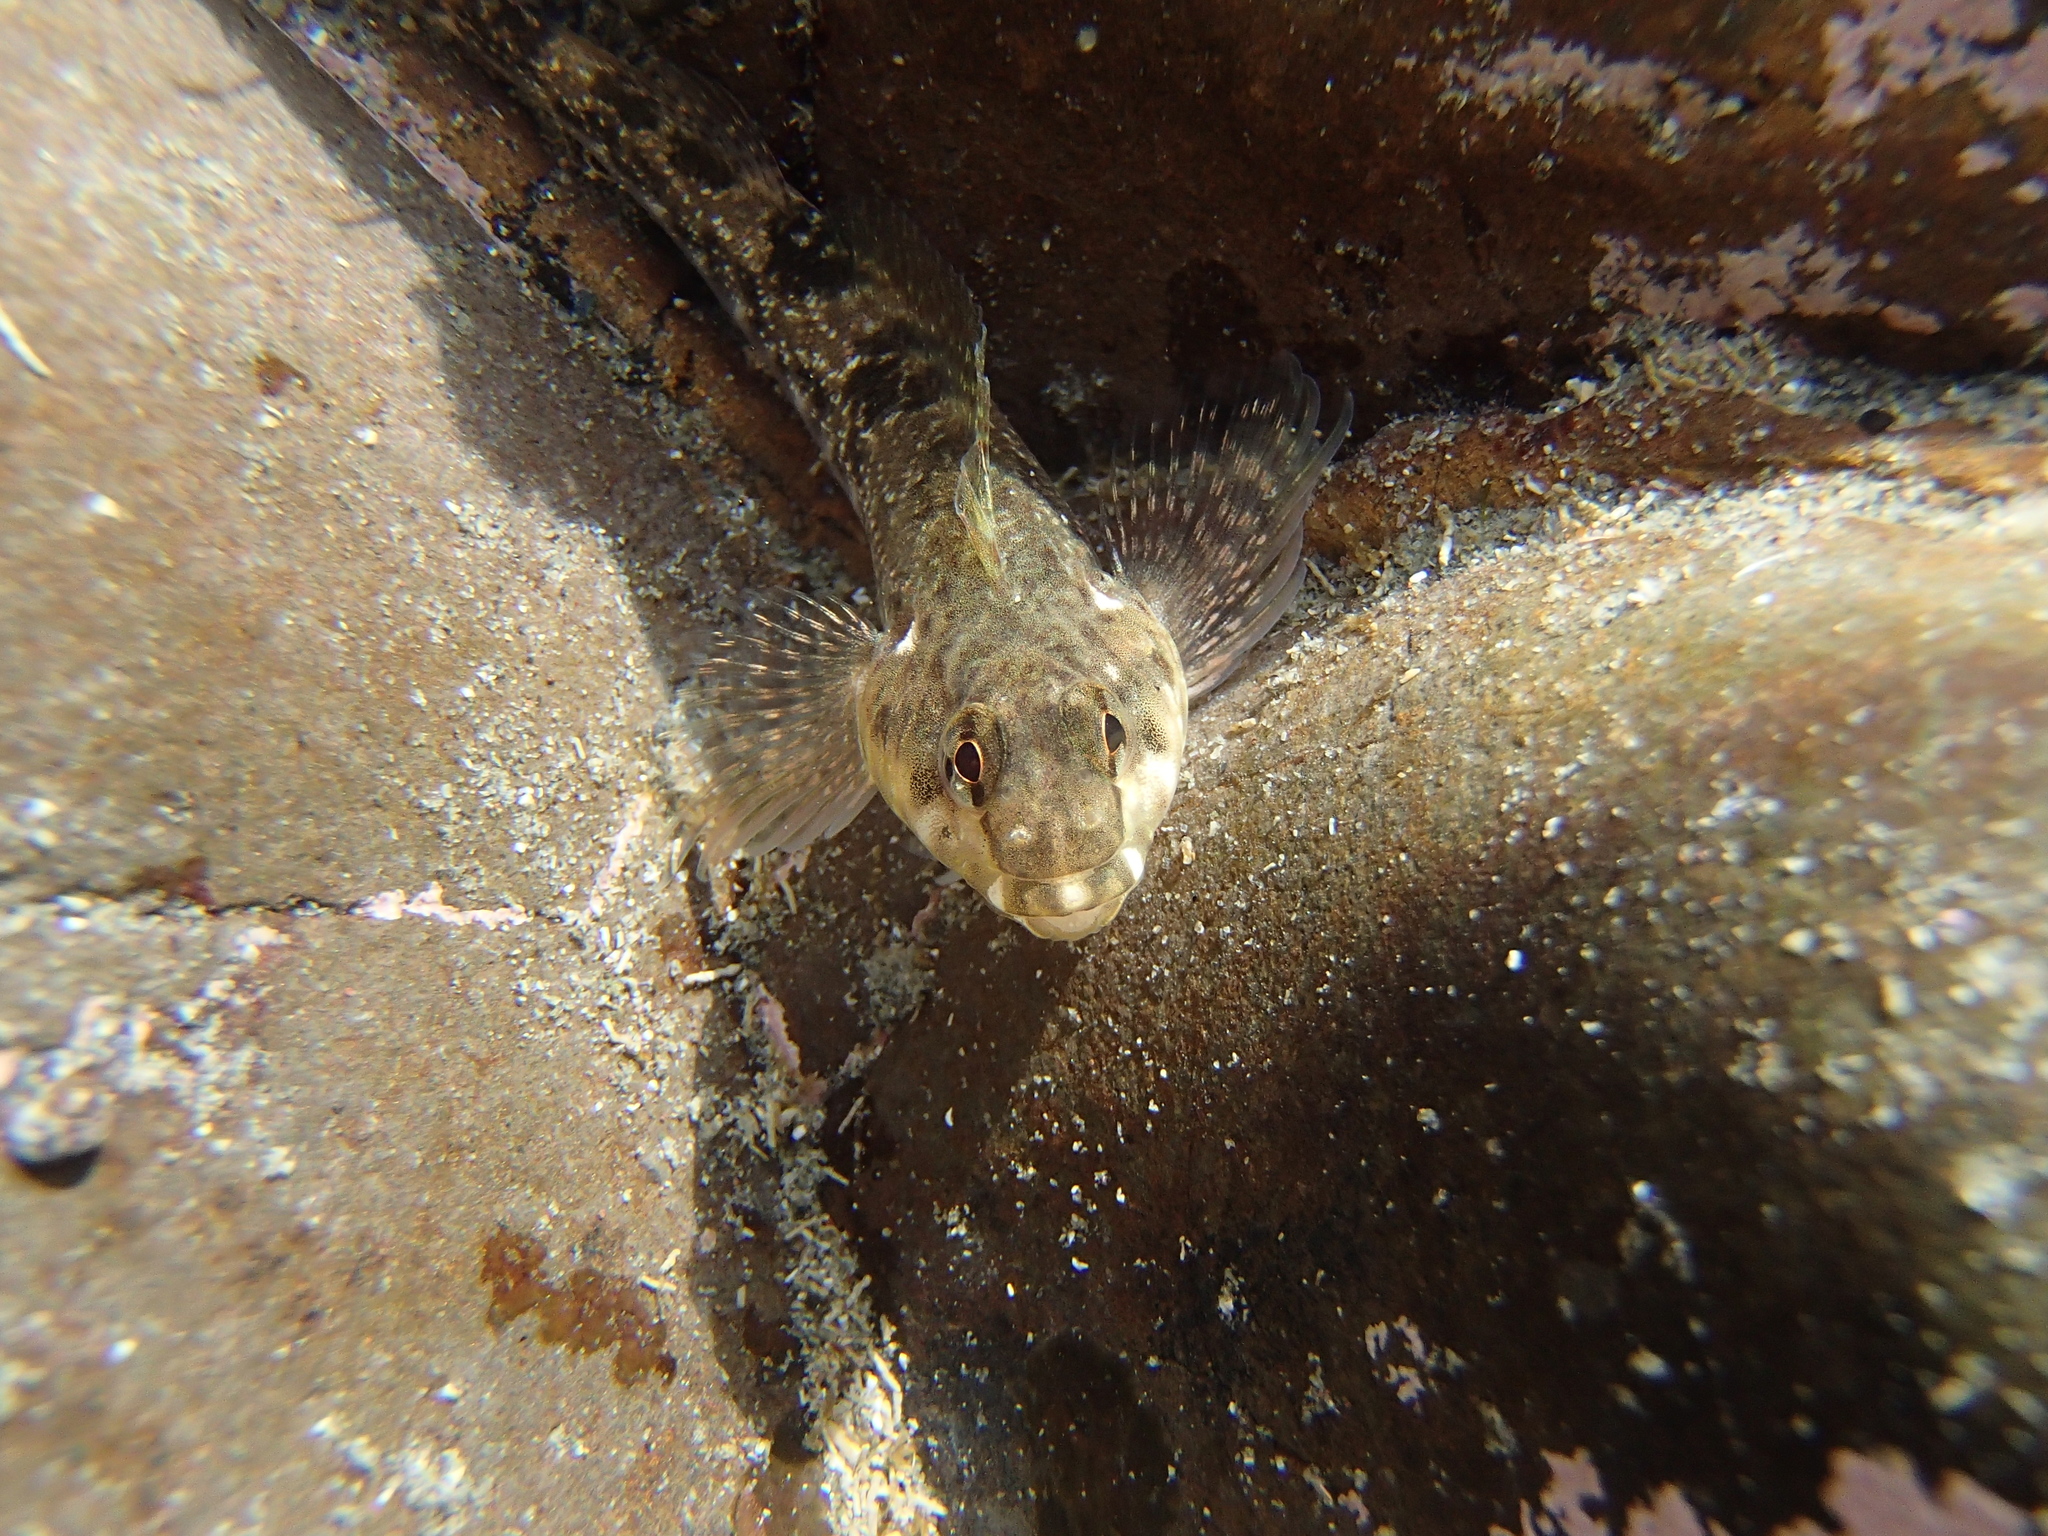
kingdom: Animalia
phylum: Chordata
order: Perciformes
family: Tripterygiidae
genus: Bellapiscis
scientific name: Bellapiscis medius
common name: Twister
